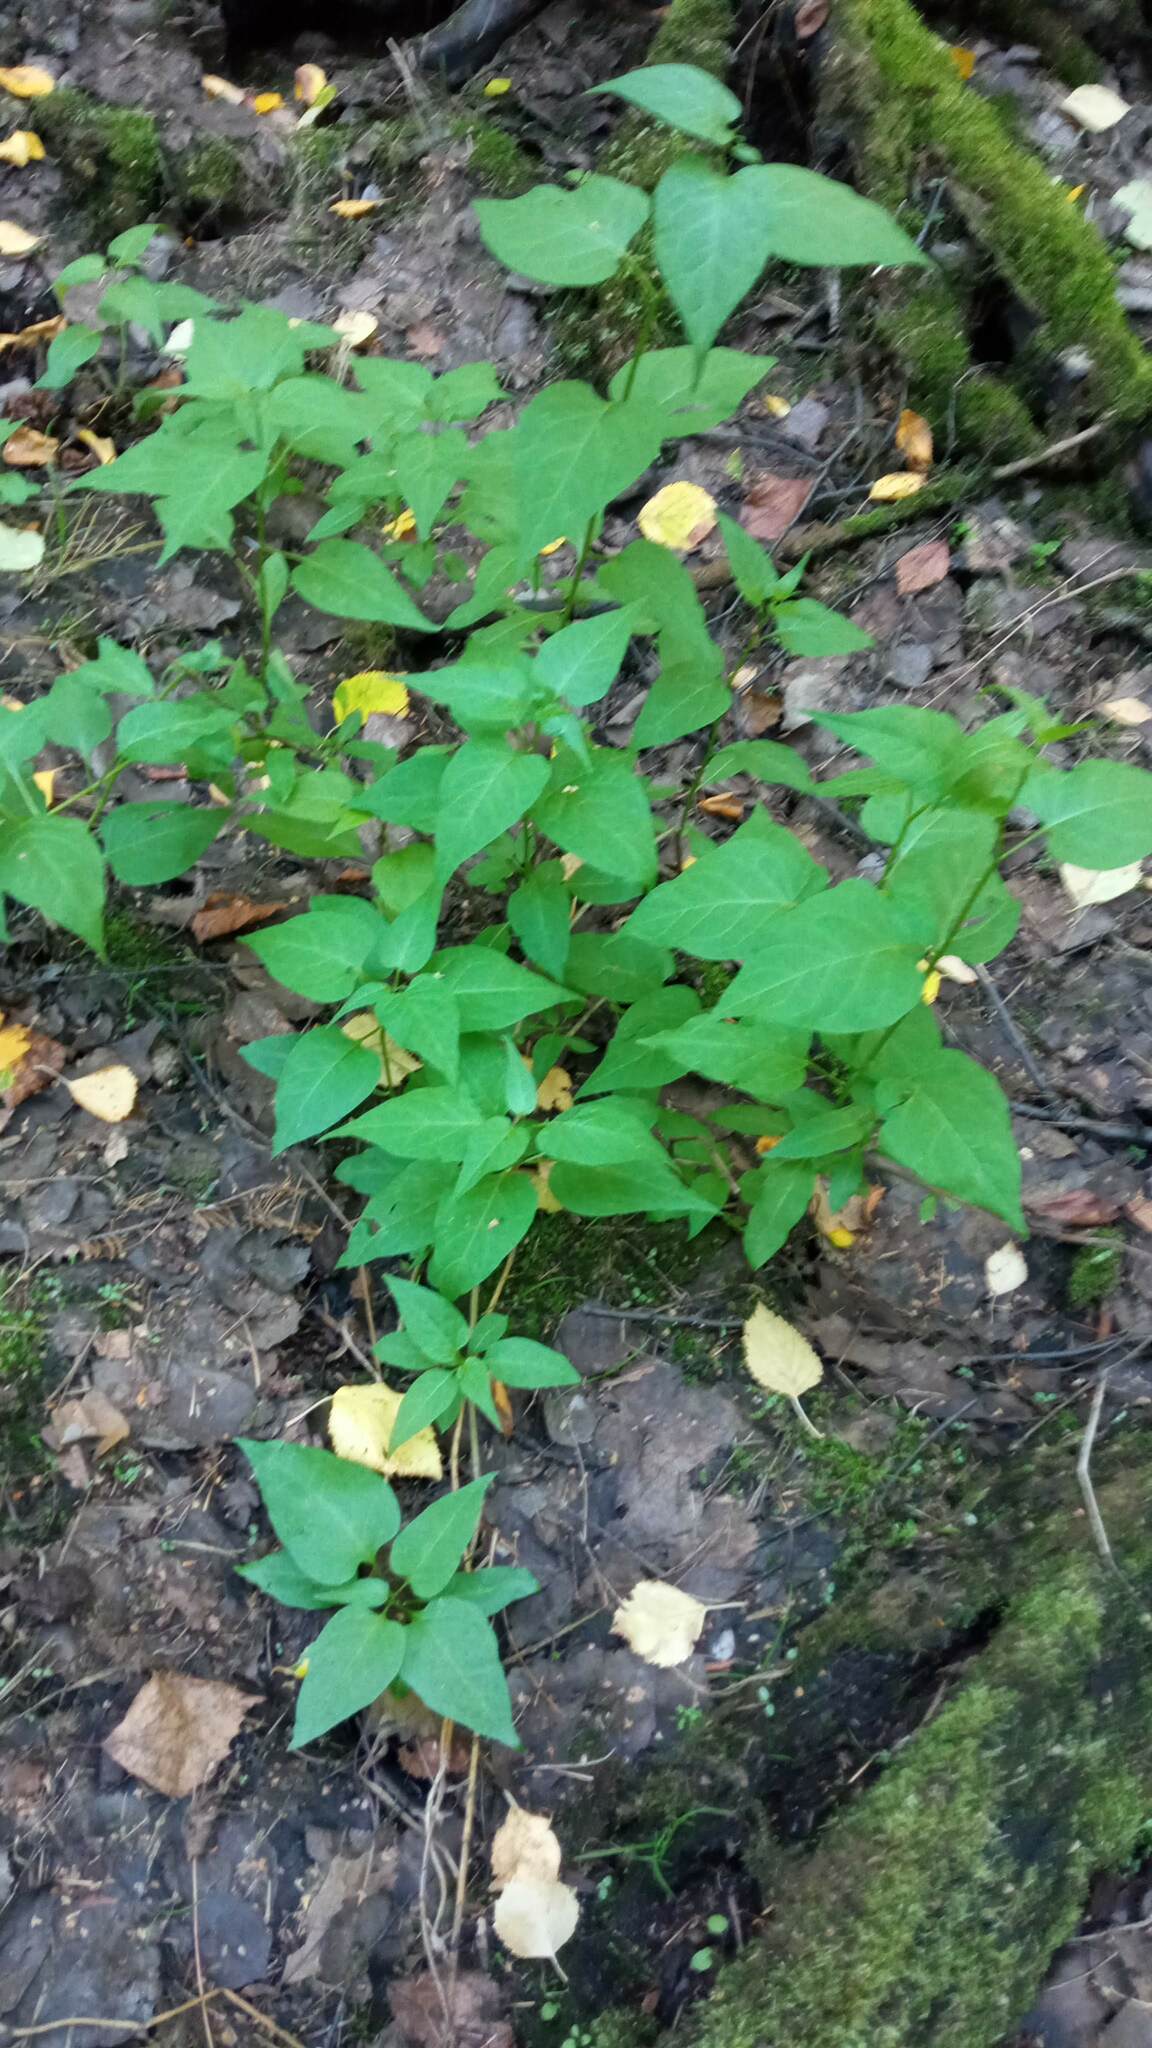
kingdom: Plantae
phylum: Tracheophyta
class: Magnoliopsida
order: Solanales
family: Solanaceae
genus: Solanum
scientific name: Solanum dulcamara
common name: Climbing nightshade
